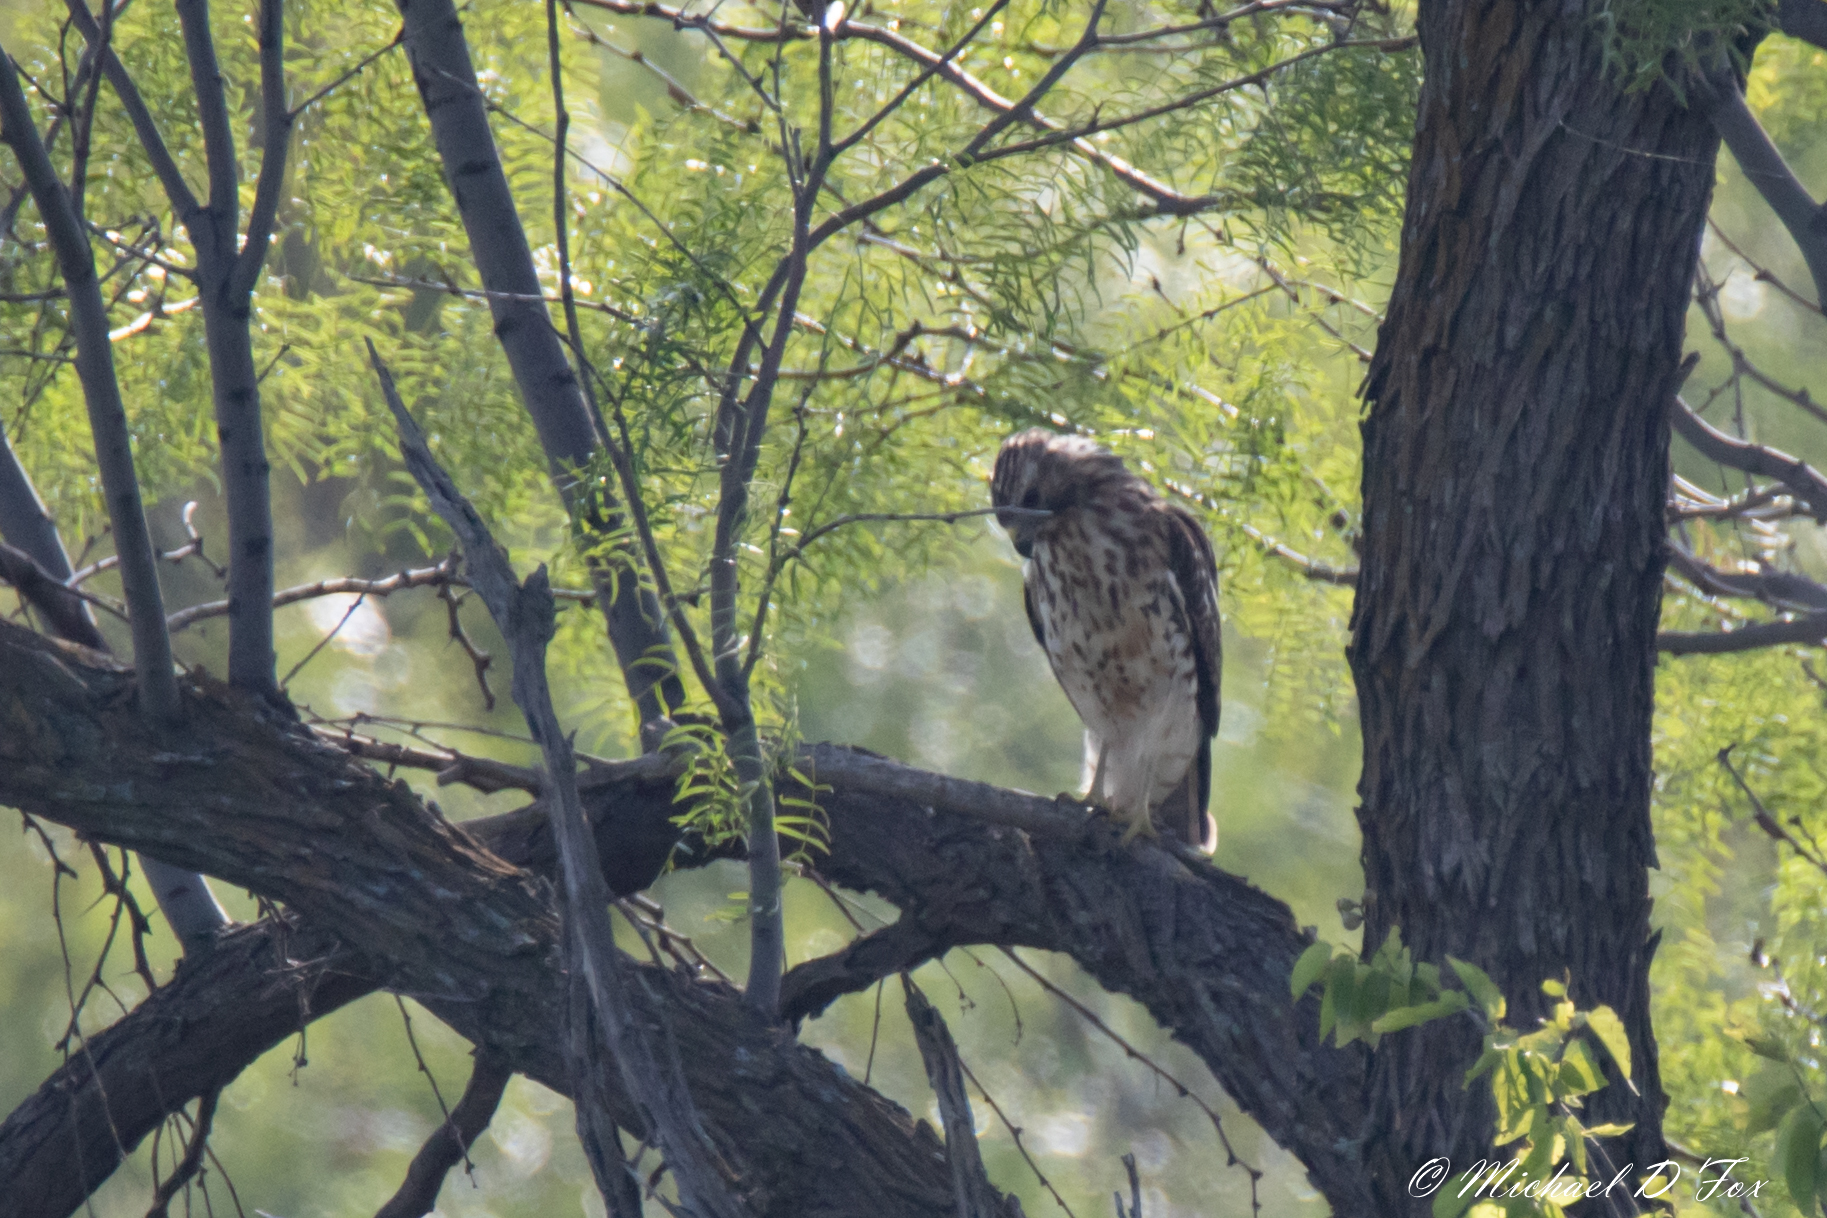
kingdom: Animalia
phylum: Chordata
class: Aves
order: Accipitriformes
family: Accipitridae
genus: Buteo
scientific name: Buteo lineatus
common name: Red-shouldered hawk
